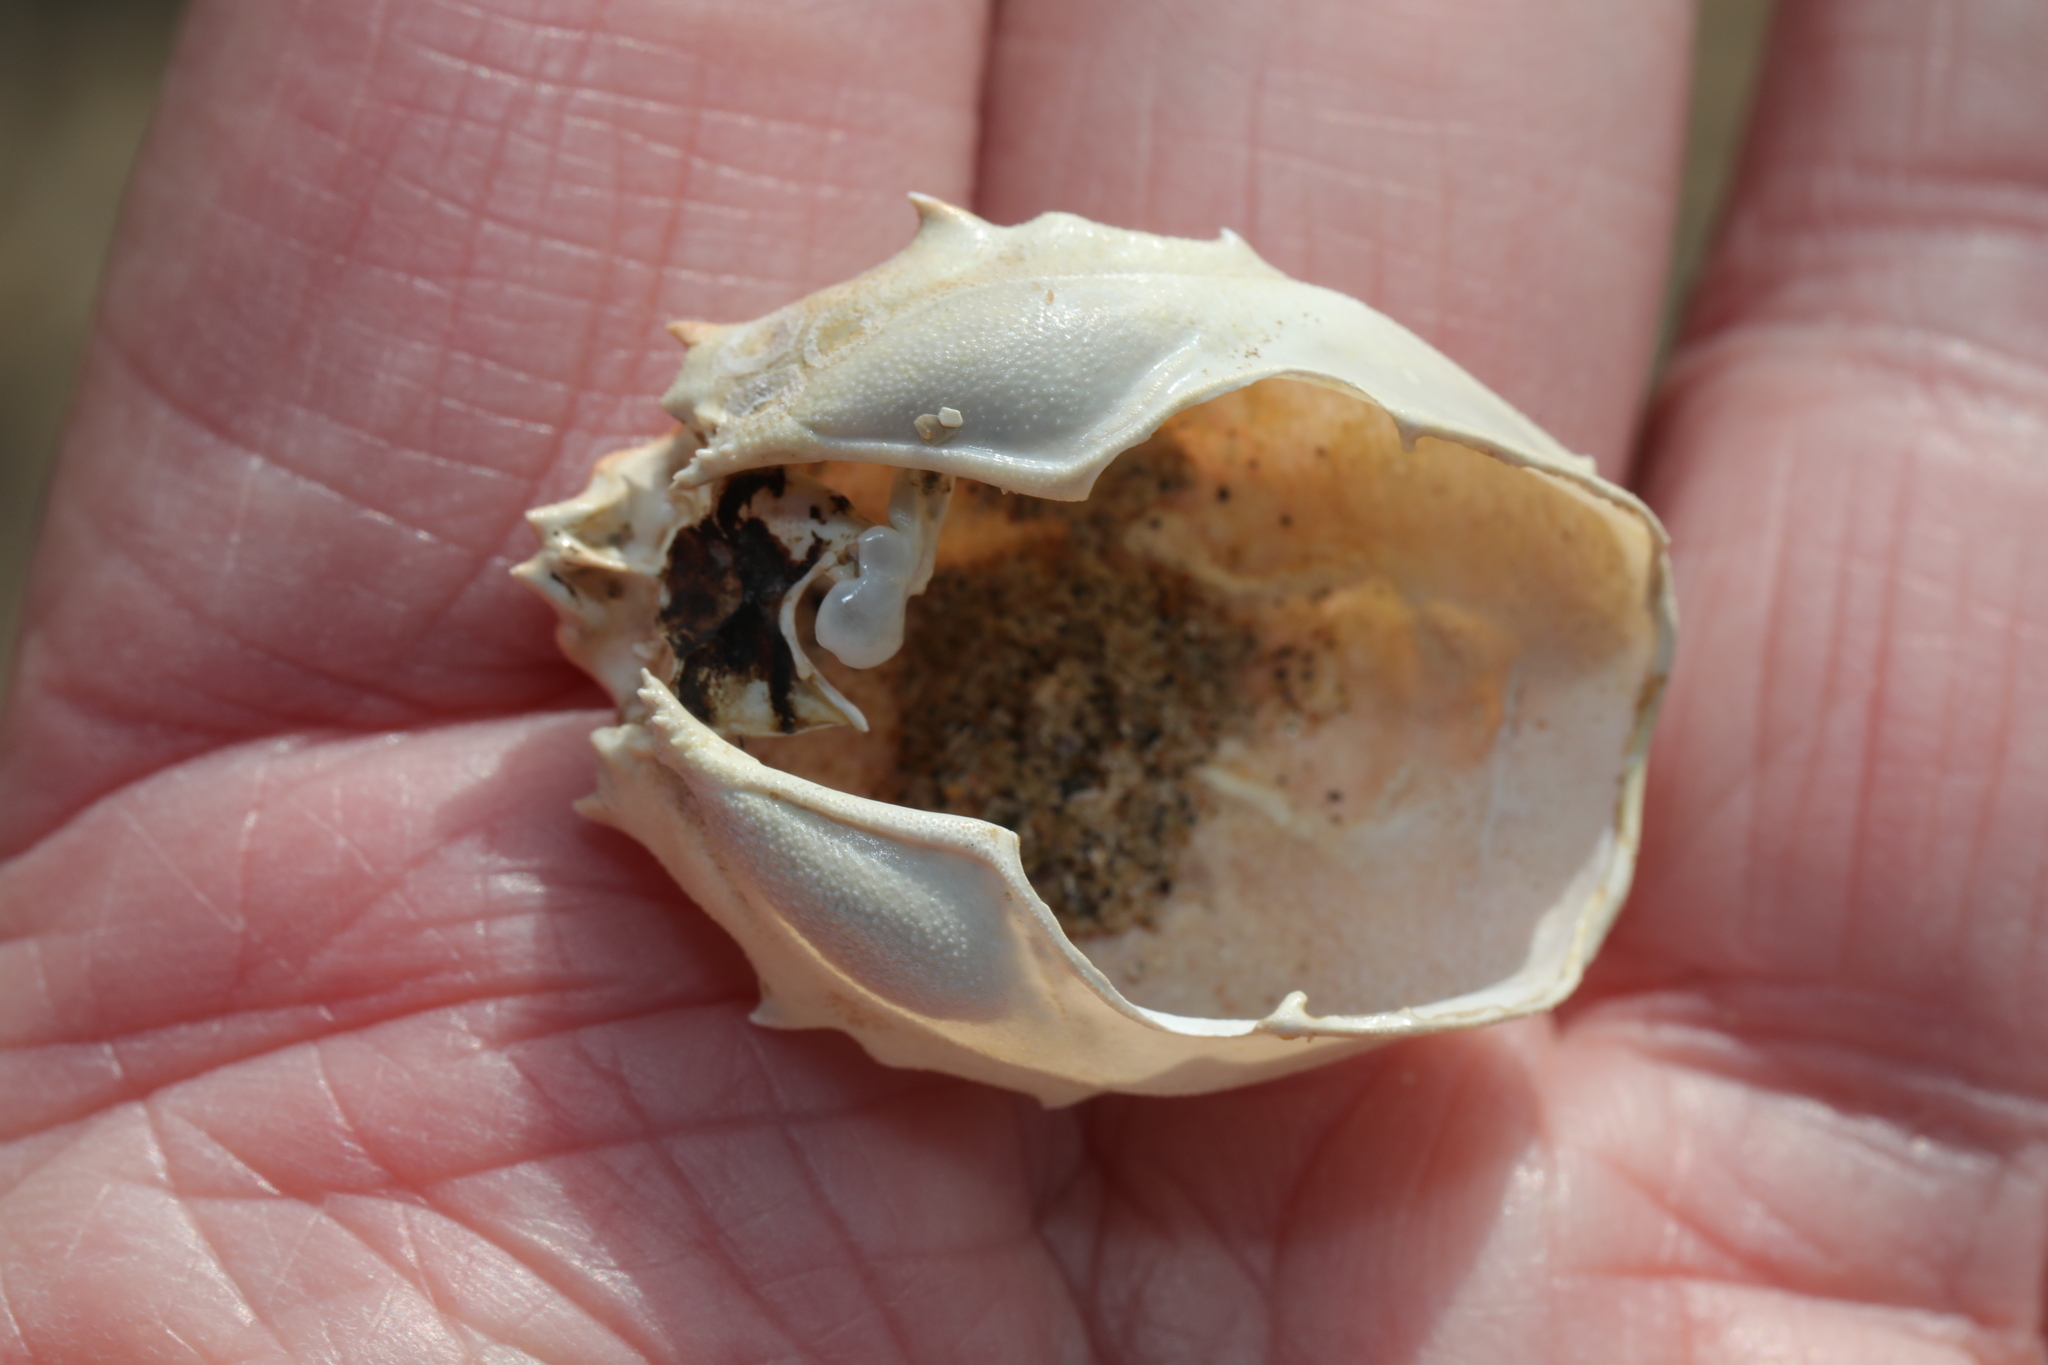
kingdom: Animalia
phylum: Arthropoda
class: Malacostraca
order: Decapoda
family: Corystidae
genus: Corystes
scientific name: Corystes cassivelaunus
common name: Masked crab
